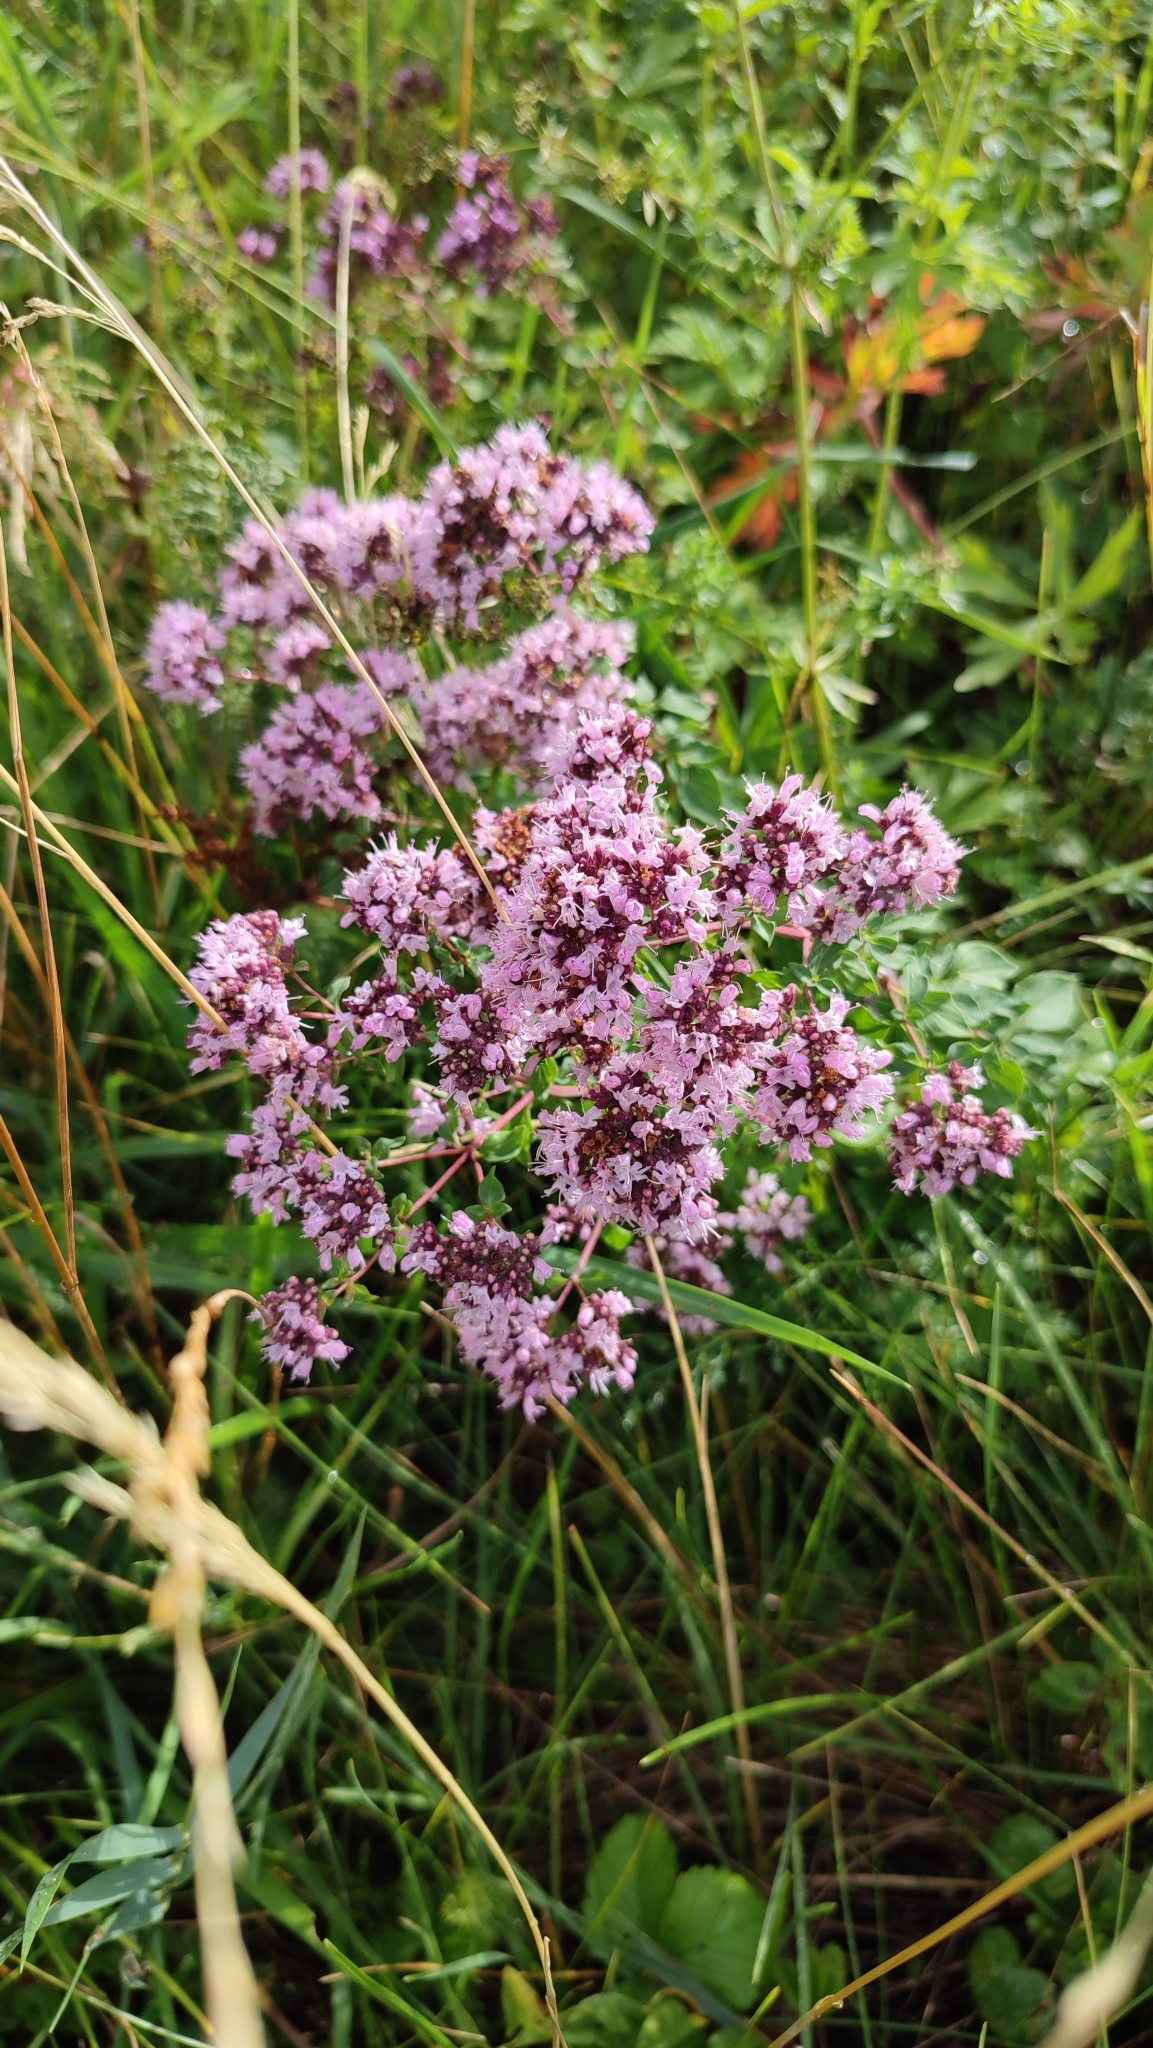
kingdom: Plantae
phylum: Tracheophyta
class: Magnoliopsida
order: Lamiales
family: Lamiaceae
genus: Origanum
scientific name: Origanum vulgare
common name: Wild marjoram
